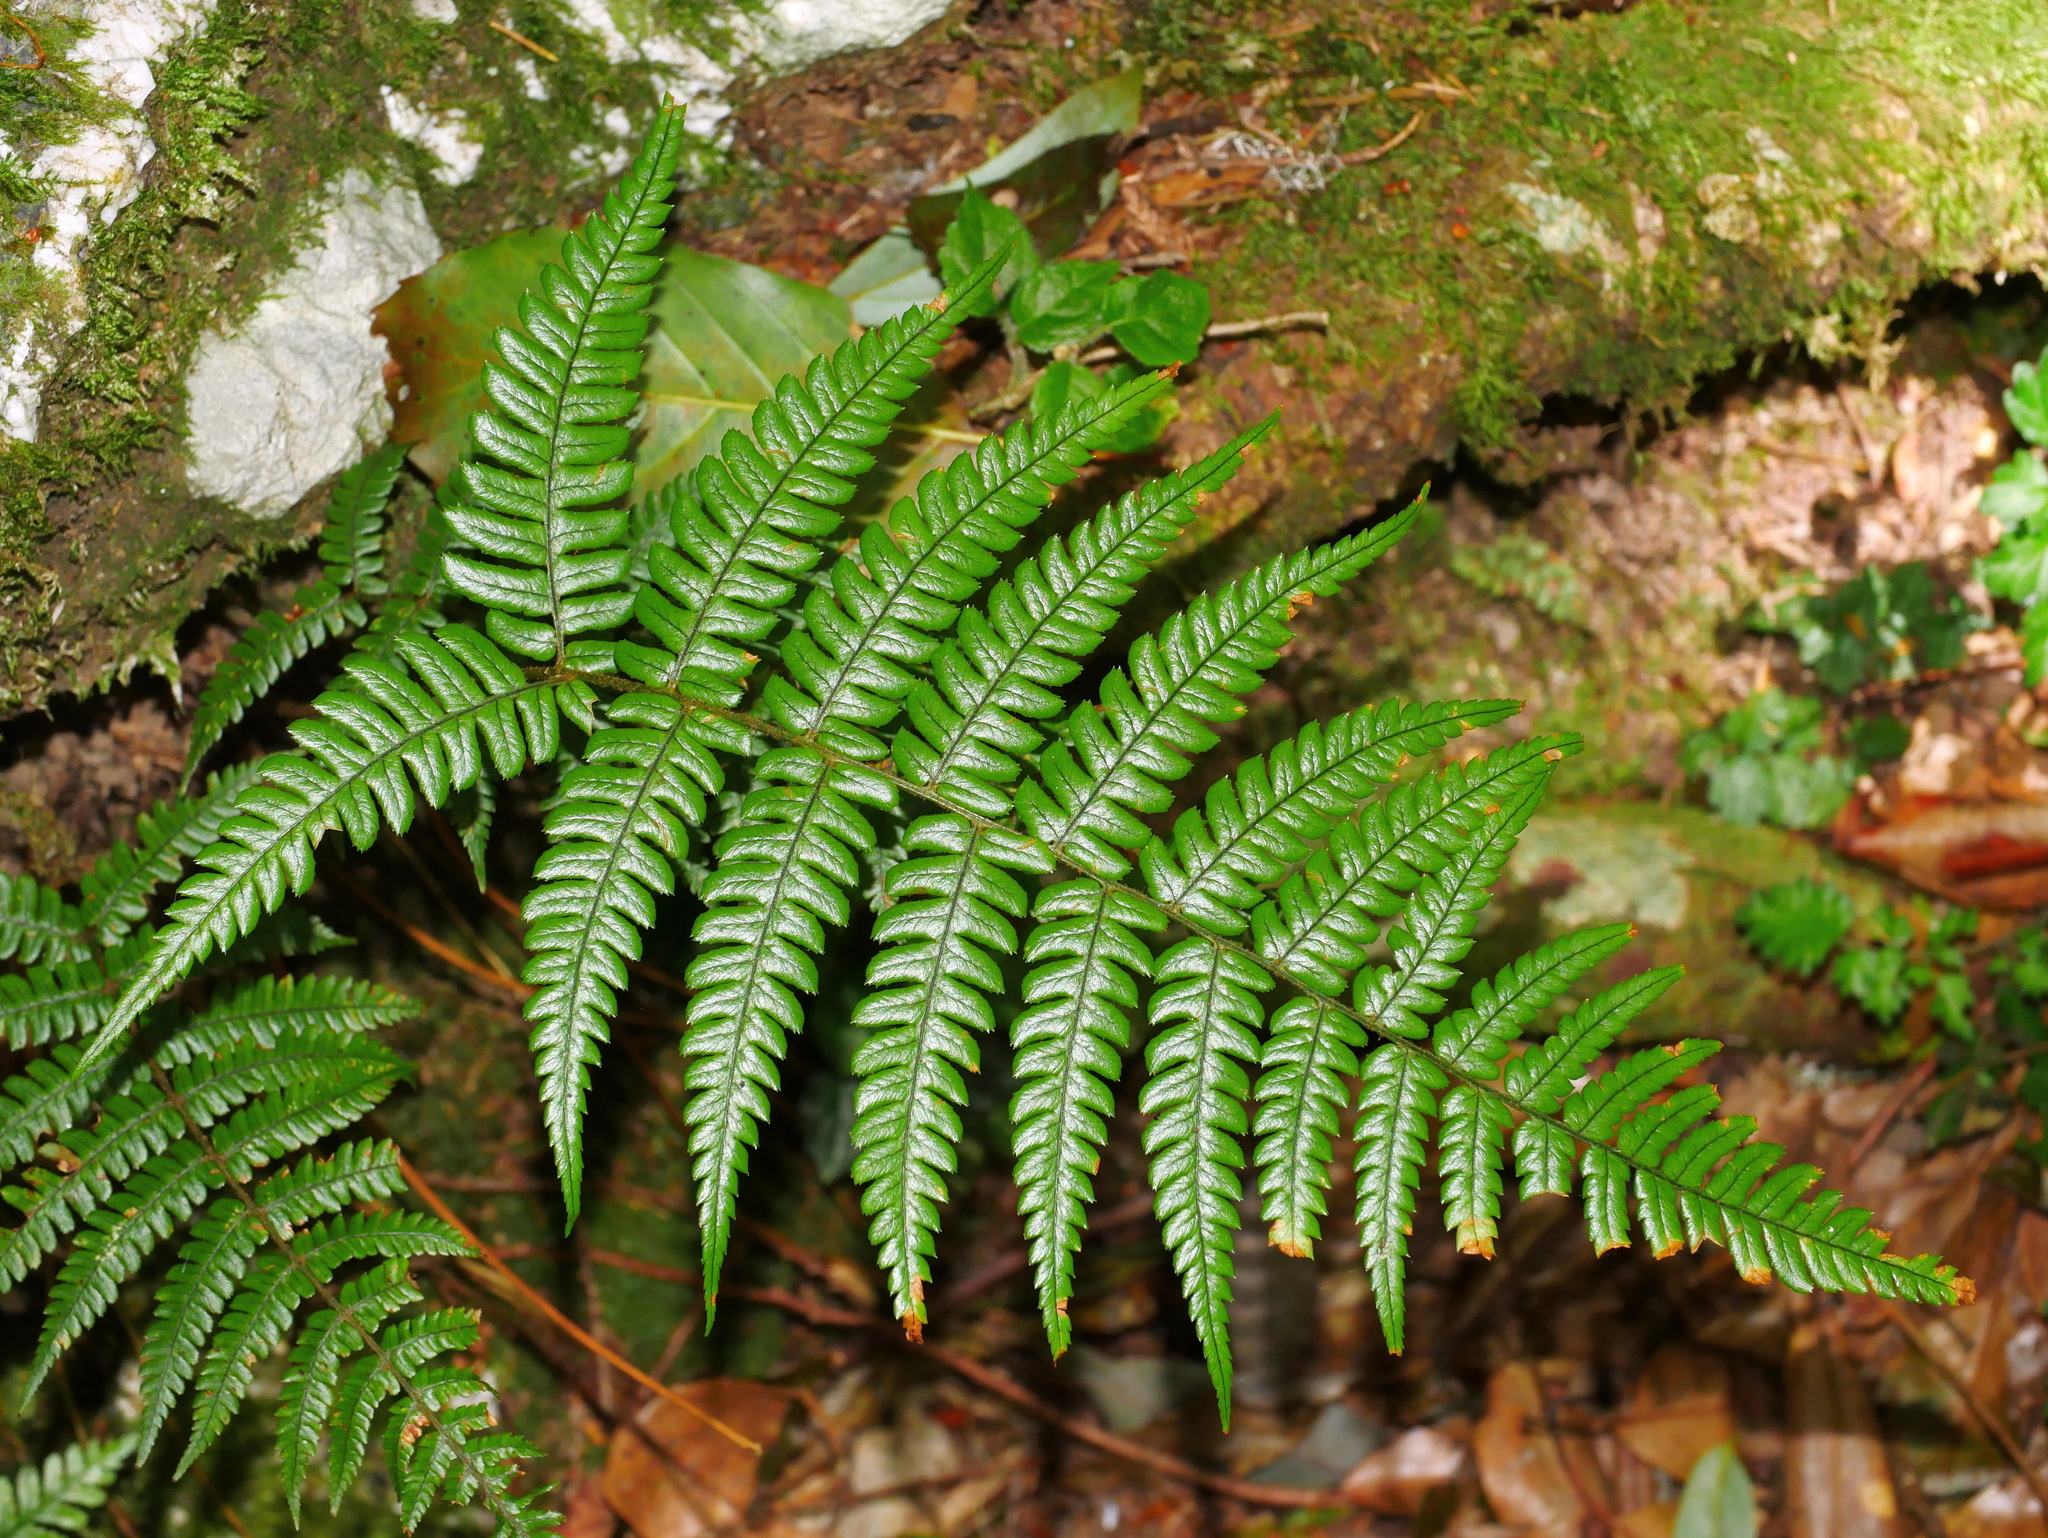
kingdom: Plantae
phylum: Tracheophyta
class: Polypodiopsida
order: Polypodiales
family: Dryopteridaceae
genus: Dryopteris
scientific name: Dryopteris lepidopoda
